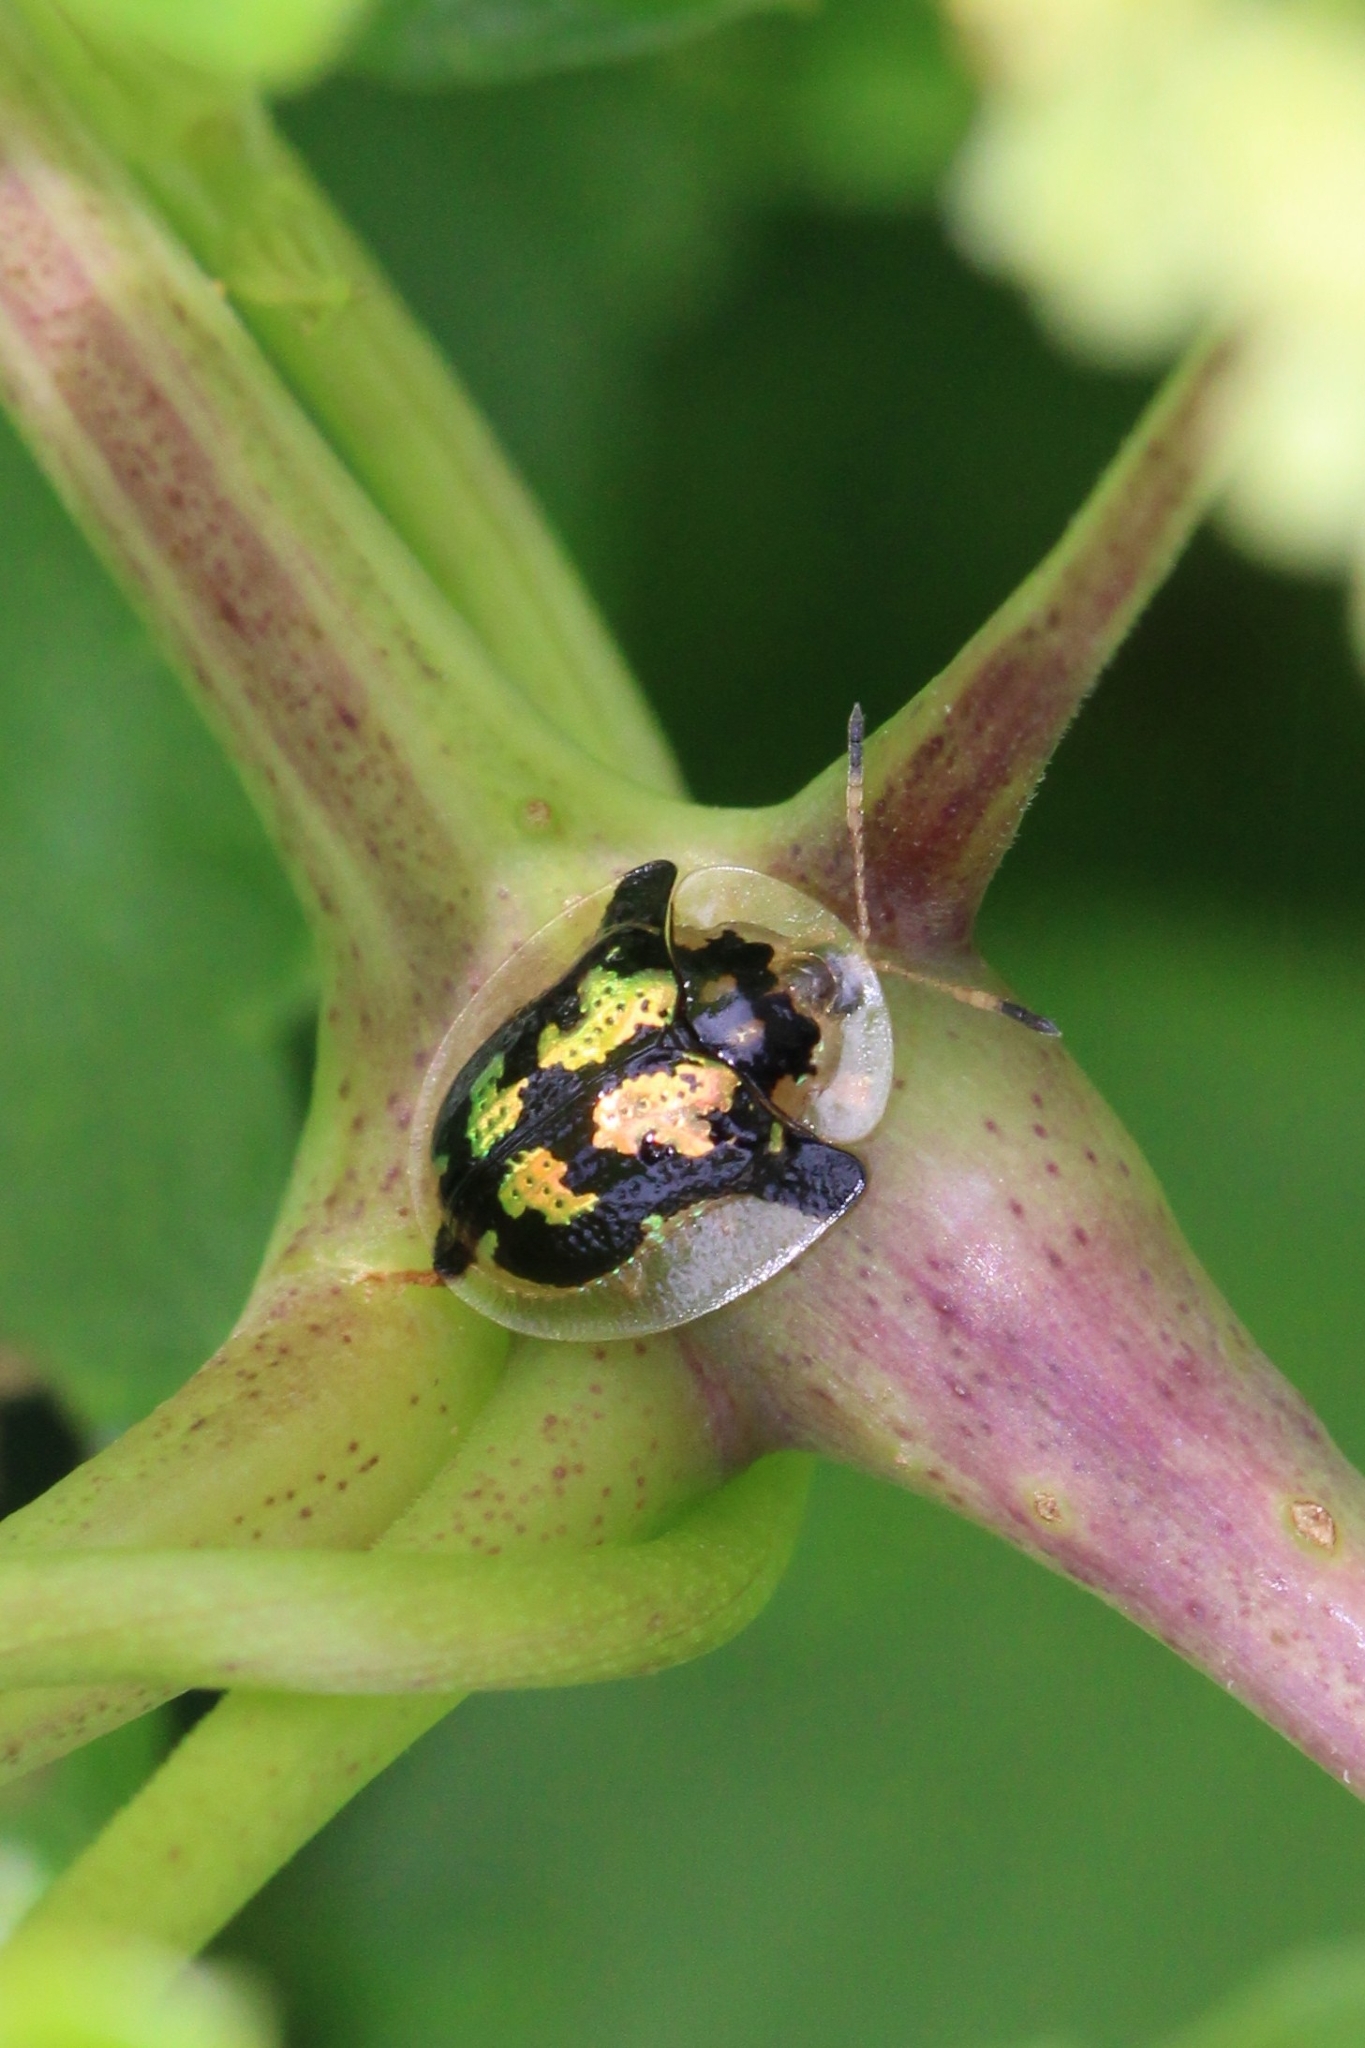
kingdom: Animalia
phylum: Arthropoda
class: Insecta
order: Coleoptera
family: Chrysomelidae
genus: Deloyala
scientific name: Deloyala guttata
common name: Mottled tortoise beetle
